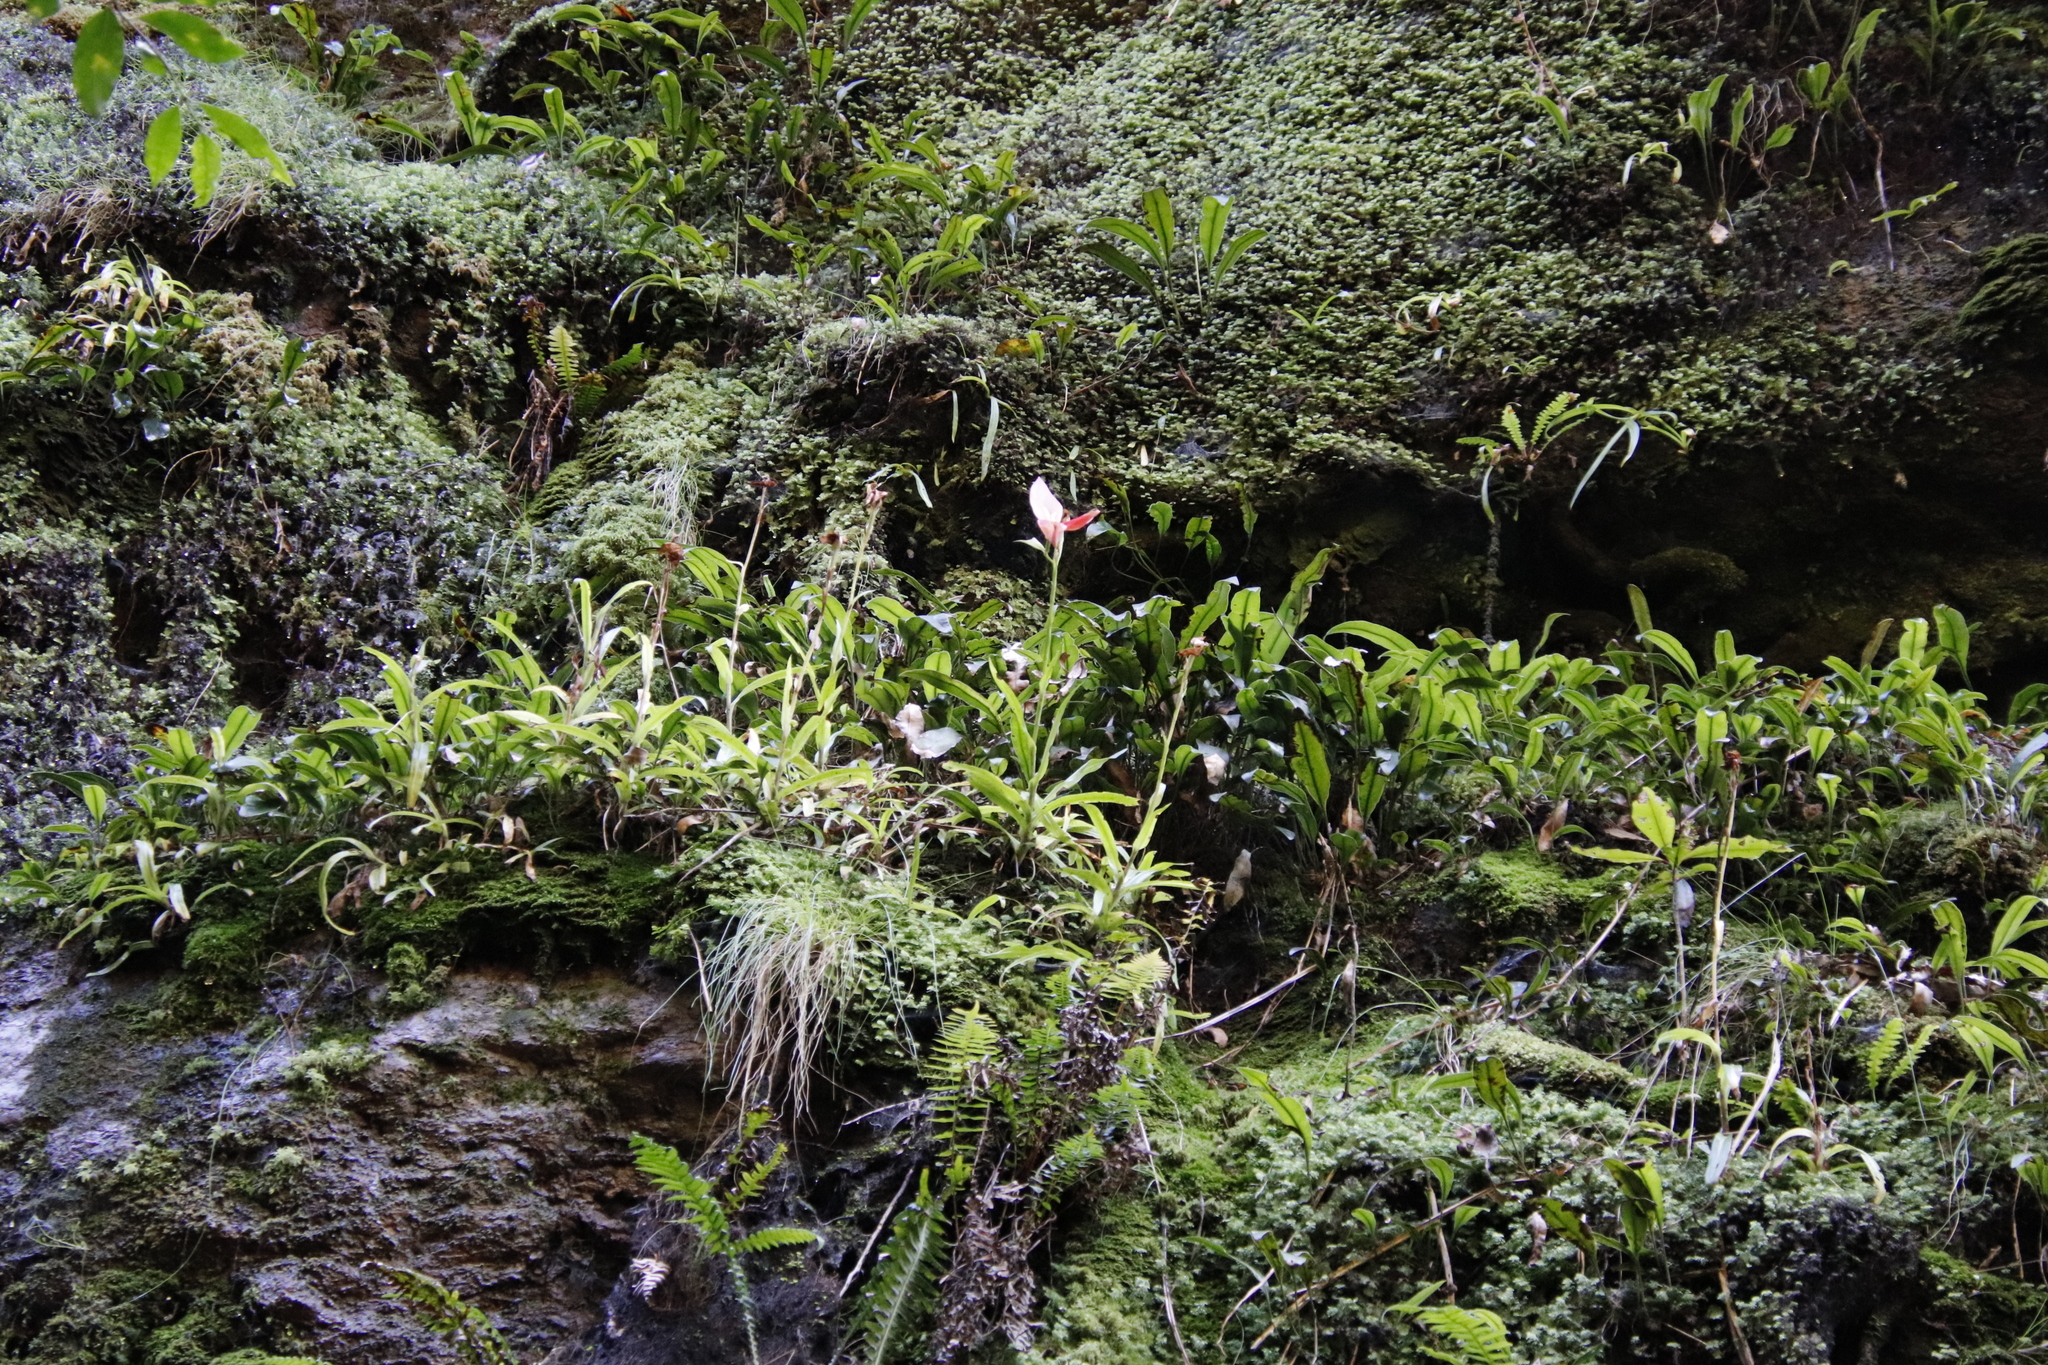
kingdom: Plantae
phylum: Tracheophyta
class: Liliopsida
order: Asparagales
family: Orchidaceae
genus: Disa
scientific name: Disa uniflora
